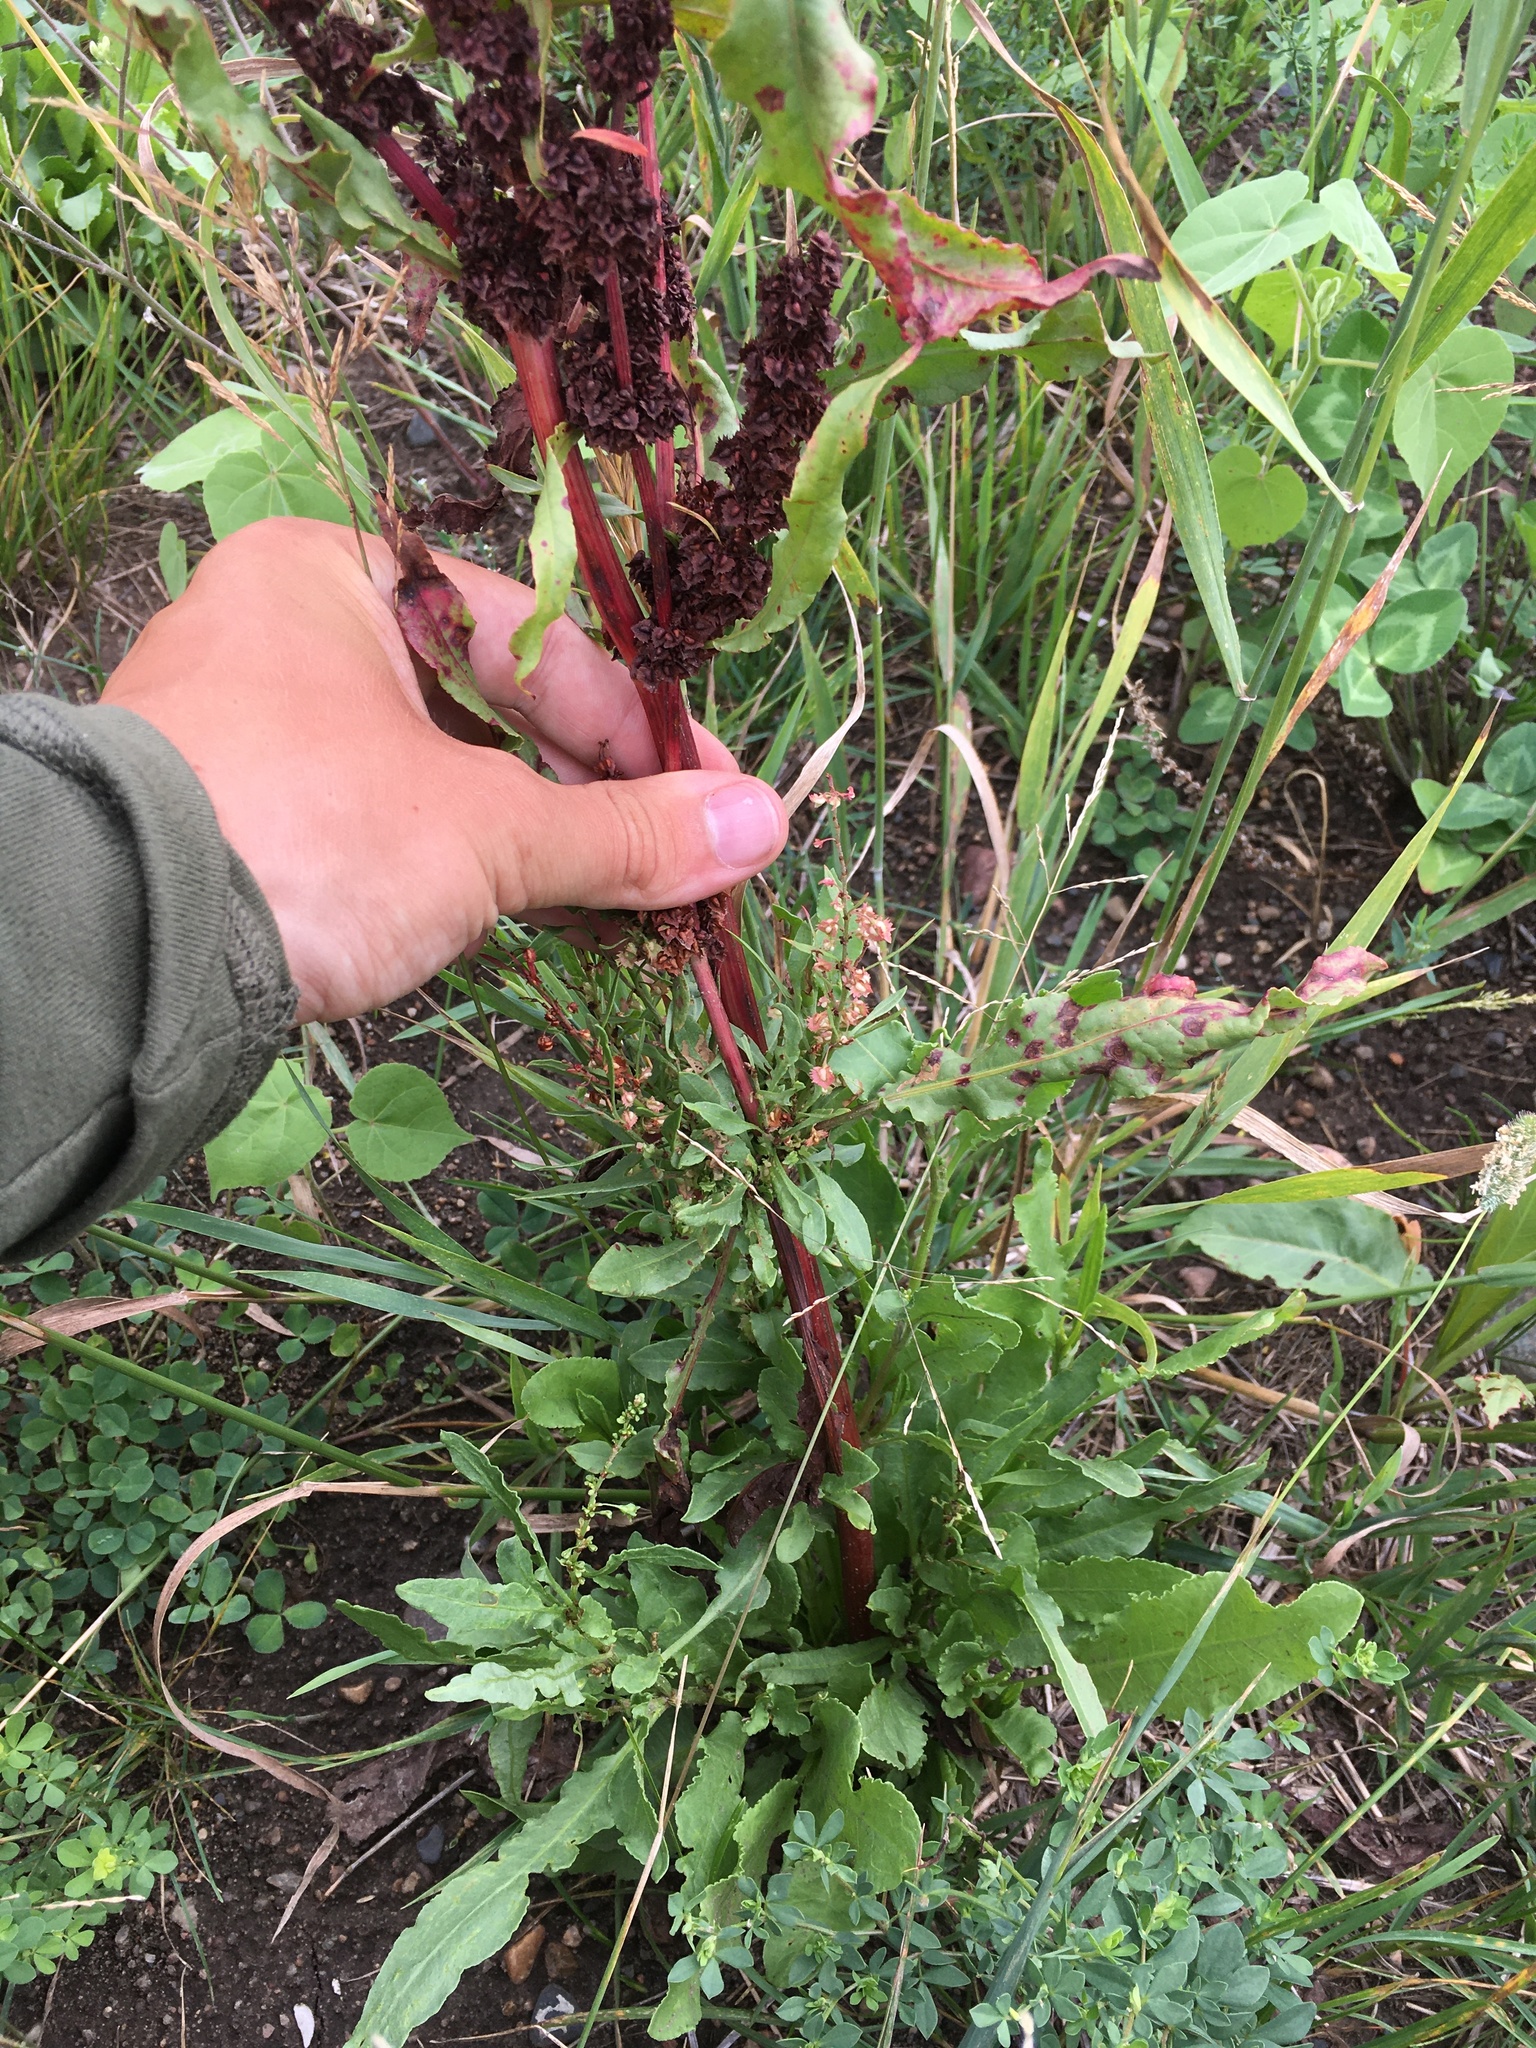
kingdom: Plantae
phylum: Tracheophyta
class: Magnoliopsida
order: Caryophyllales
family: Polygonaceae
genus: Rumex
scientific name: Rumex obtusifolius
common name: Bitter dock
